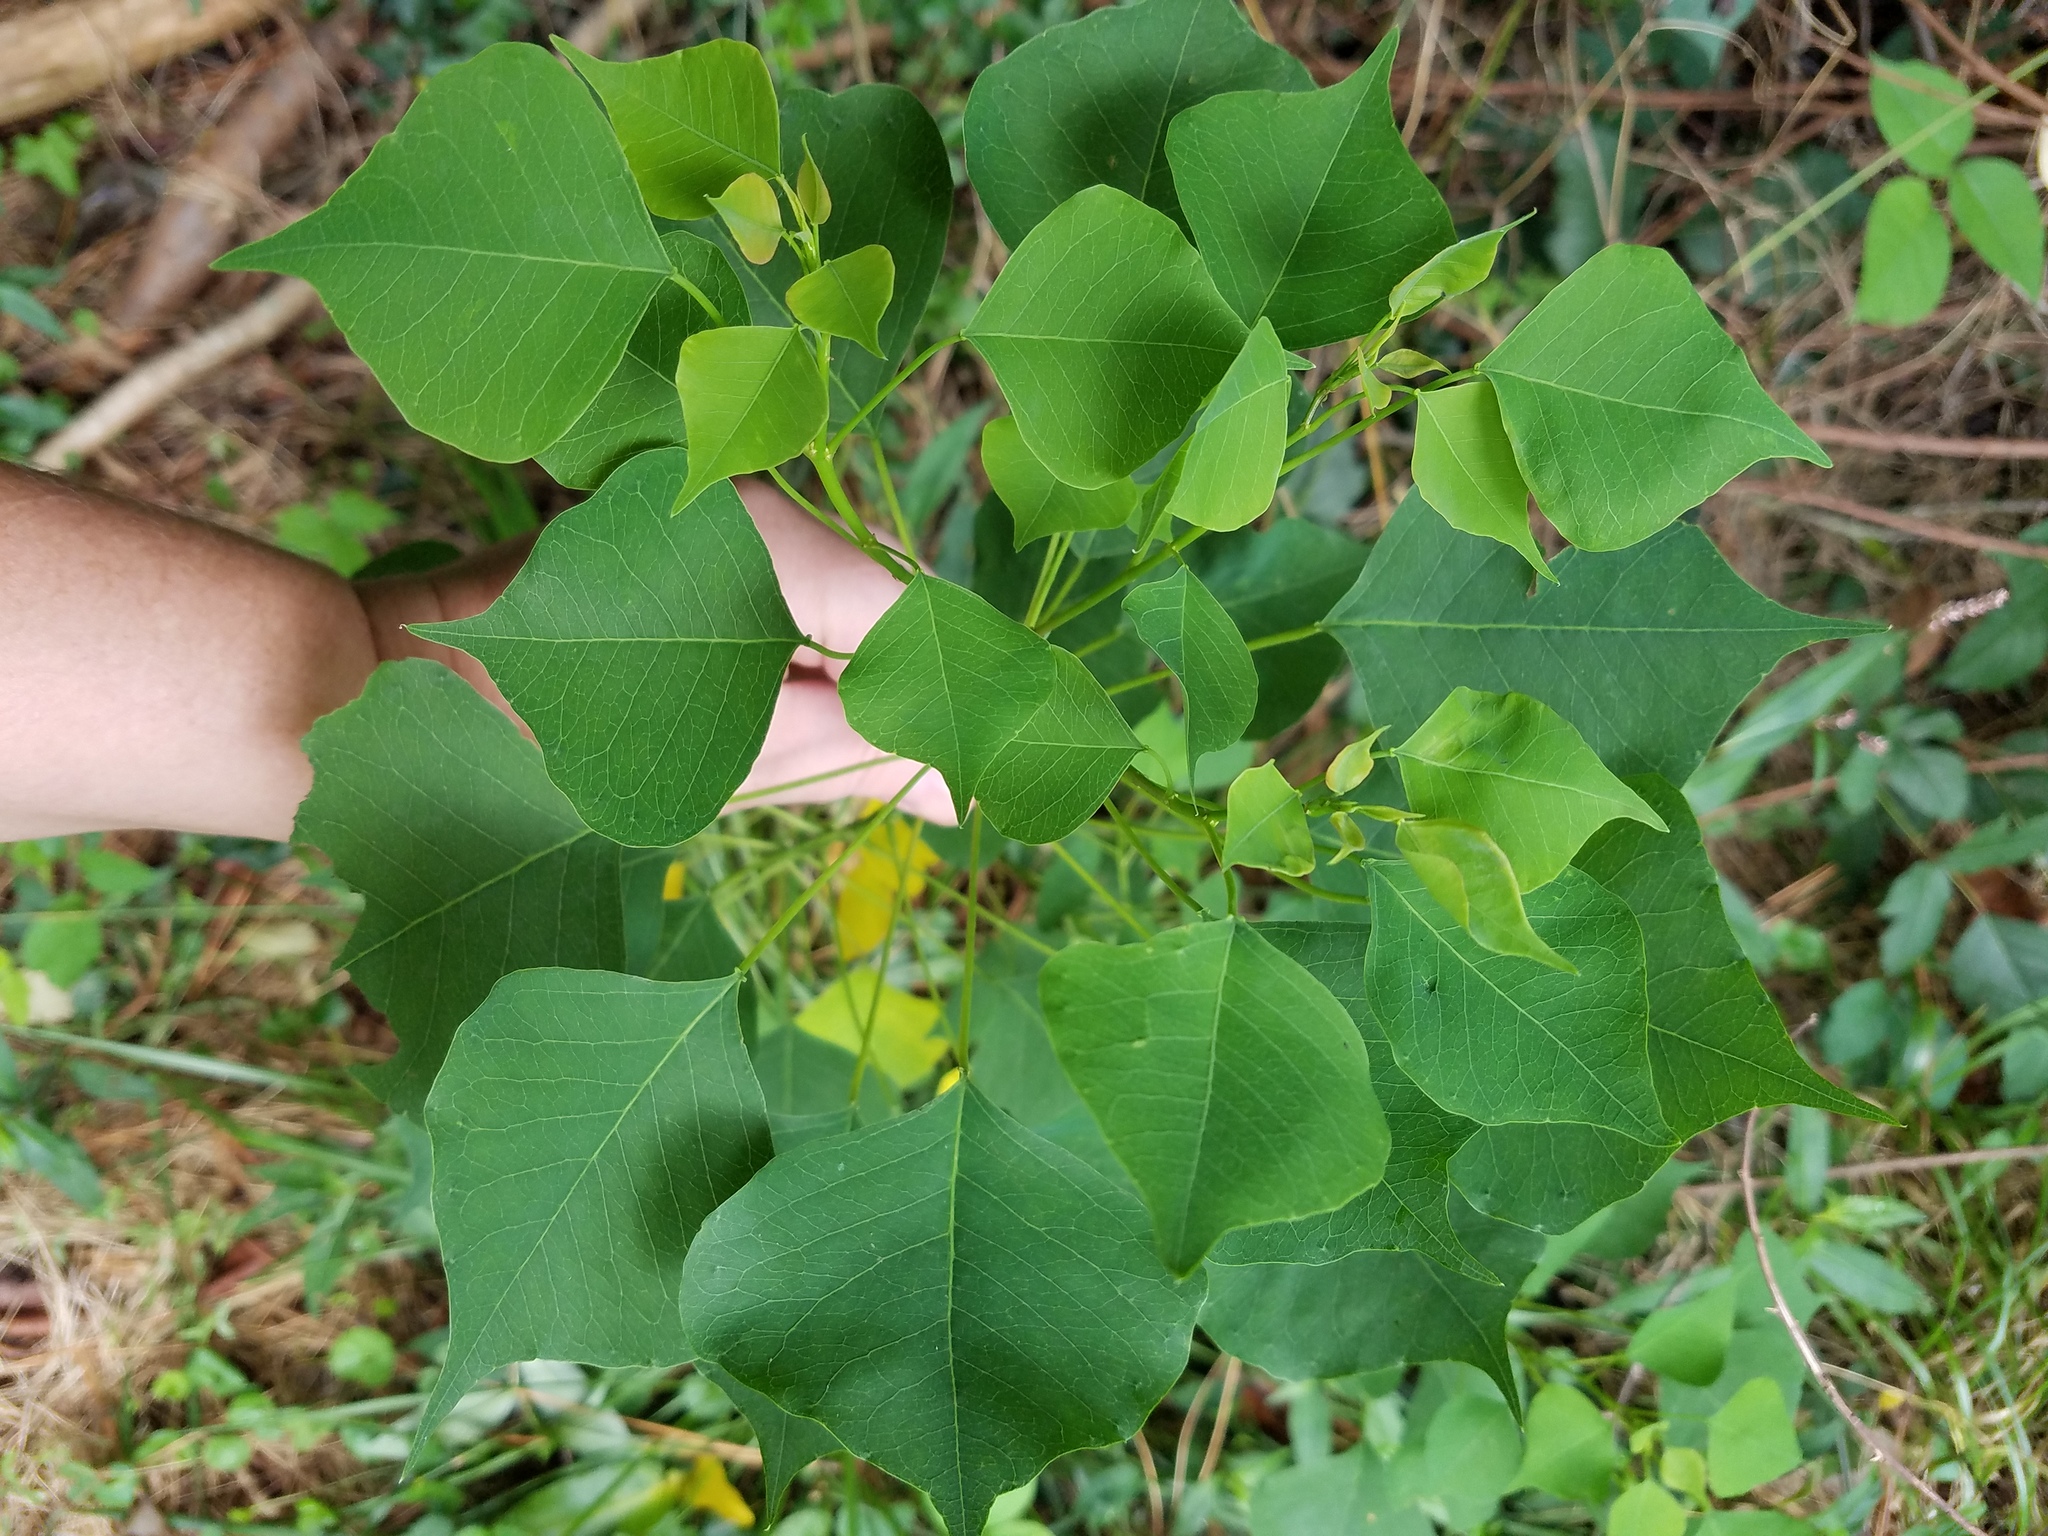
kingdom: Plantae
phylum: Tracheophyta
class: Magnoliopsida
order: Malpighiales
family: Euphorbiaceae
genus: Triadica
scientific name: Triadica sebifera
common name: Chinese tallow
